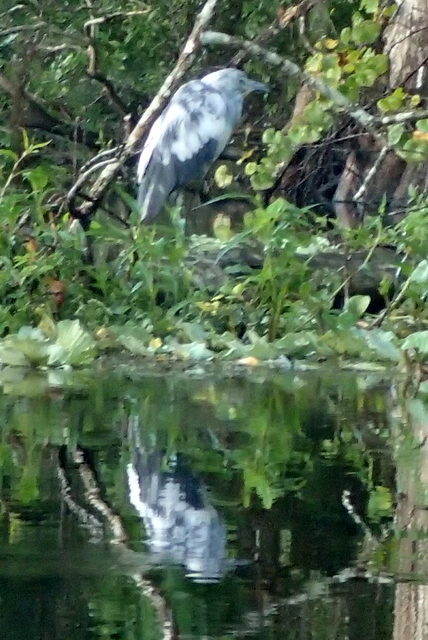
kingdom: Animalia
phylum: Chordata
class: Aves
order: Pelecaniformes
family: Ardeidae
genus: Egretta
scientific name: Egretta caerulea
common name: Little blue heron
